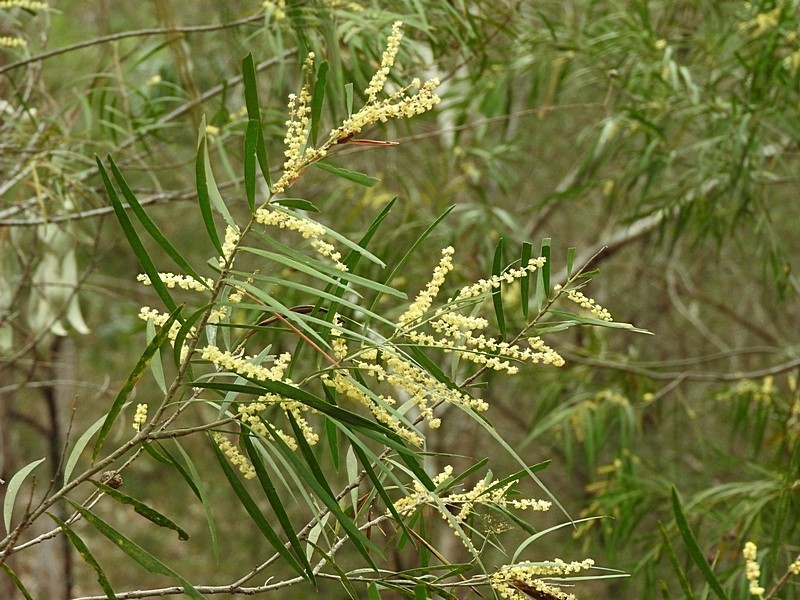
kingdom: Plantae
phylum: Tracheophyta
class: Magnoliopsida
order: Fabales
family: Fabaceae
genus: Acacia
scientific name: Acacia floribunda
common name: Gossamer wattle
